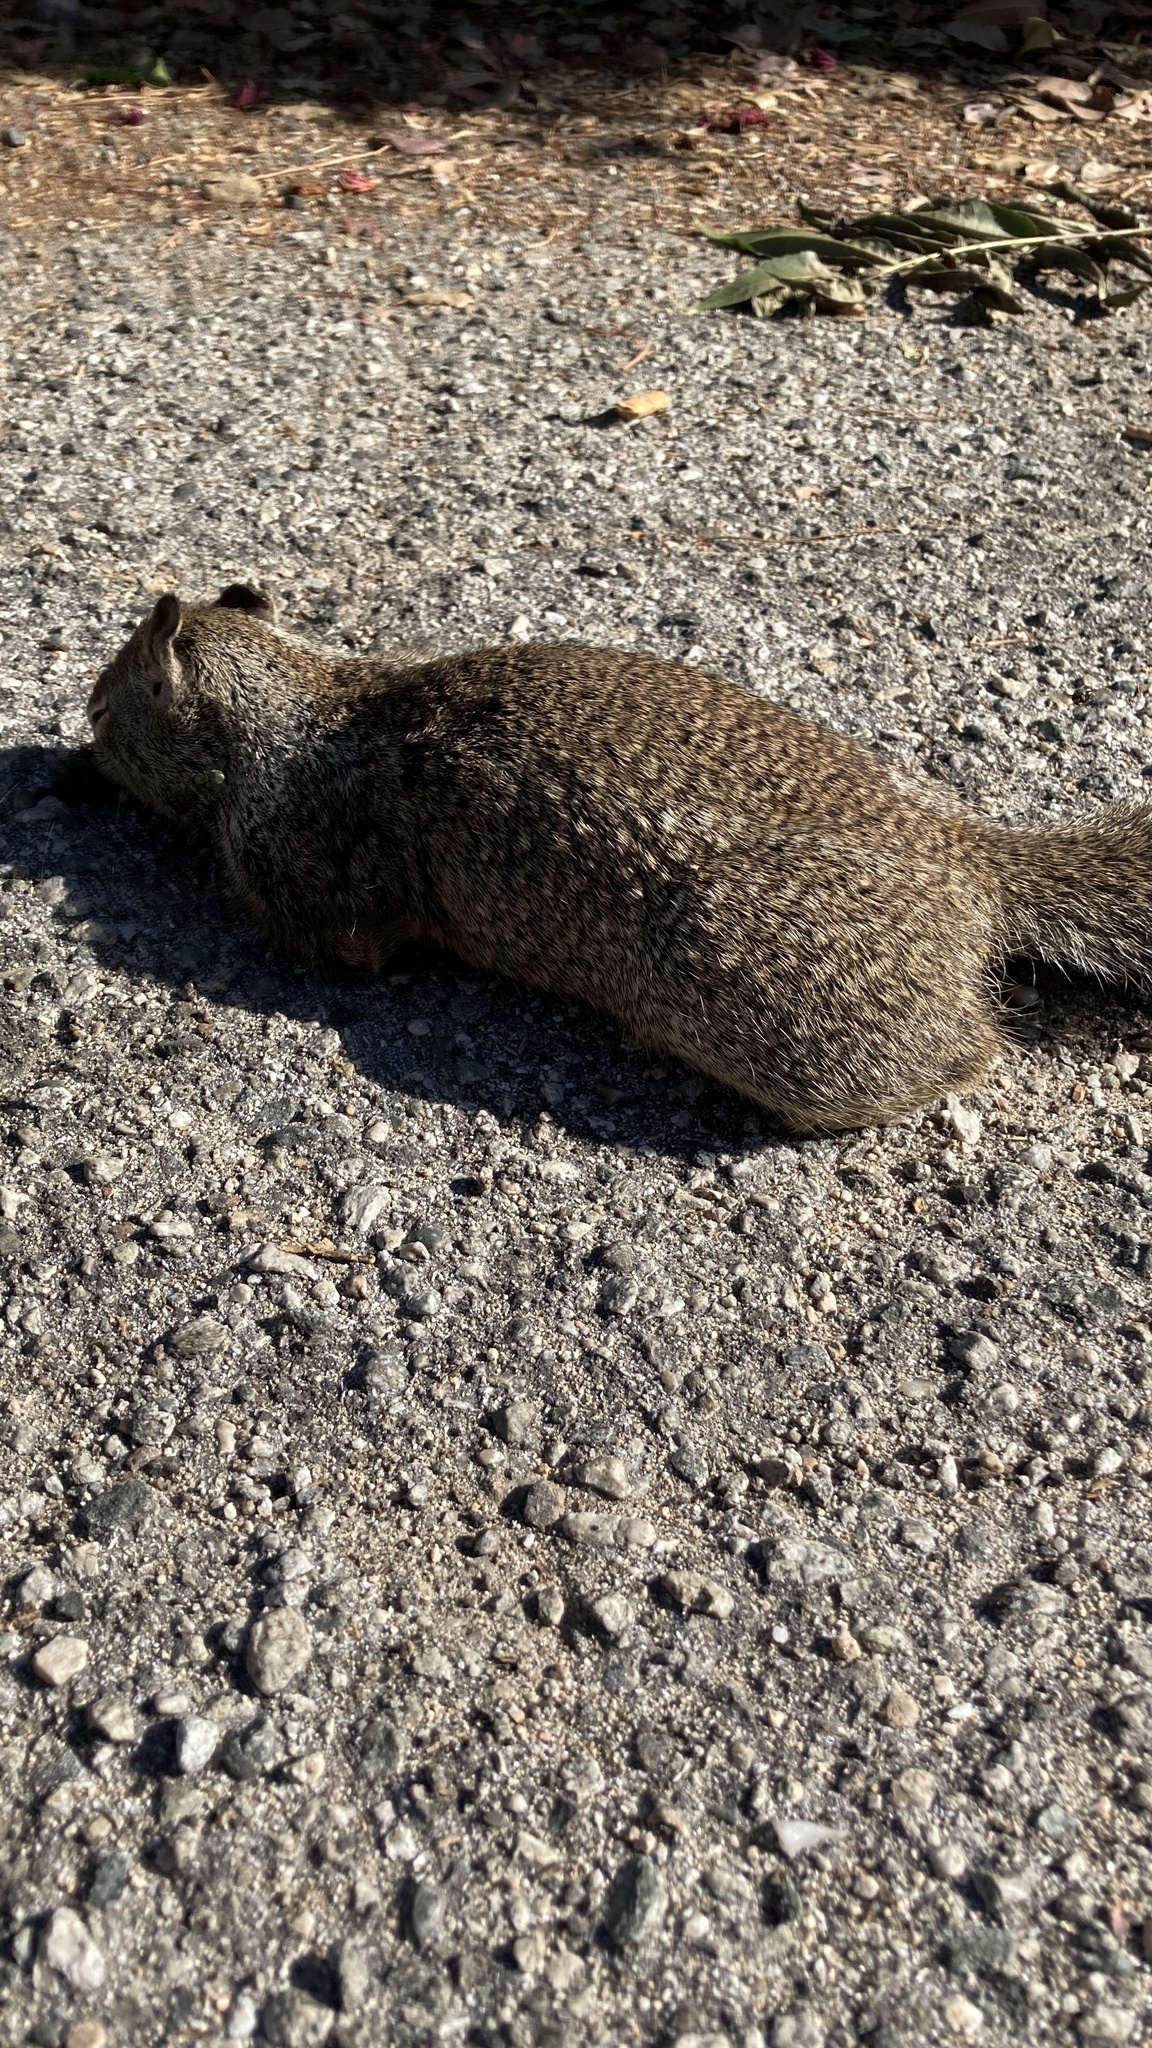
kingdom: Animalia
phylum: Chordata
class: Mammalia
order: Rodentia
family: Sciuridae
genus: Otospermophilus
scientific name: Otospermophilus beecheyi
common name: California ground squirrel
